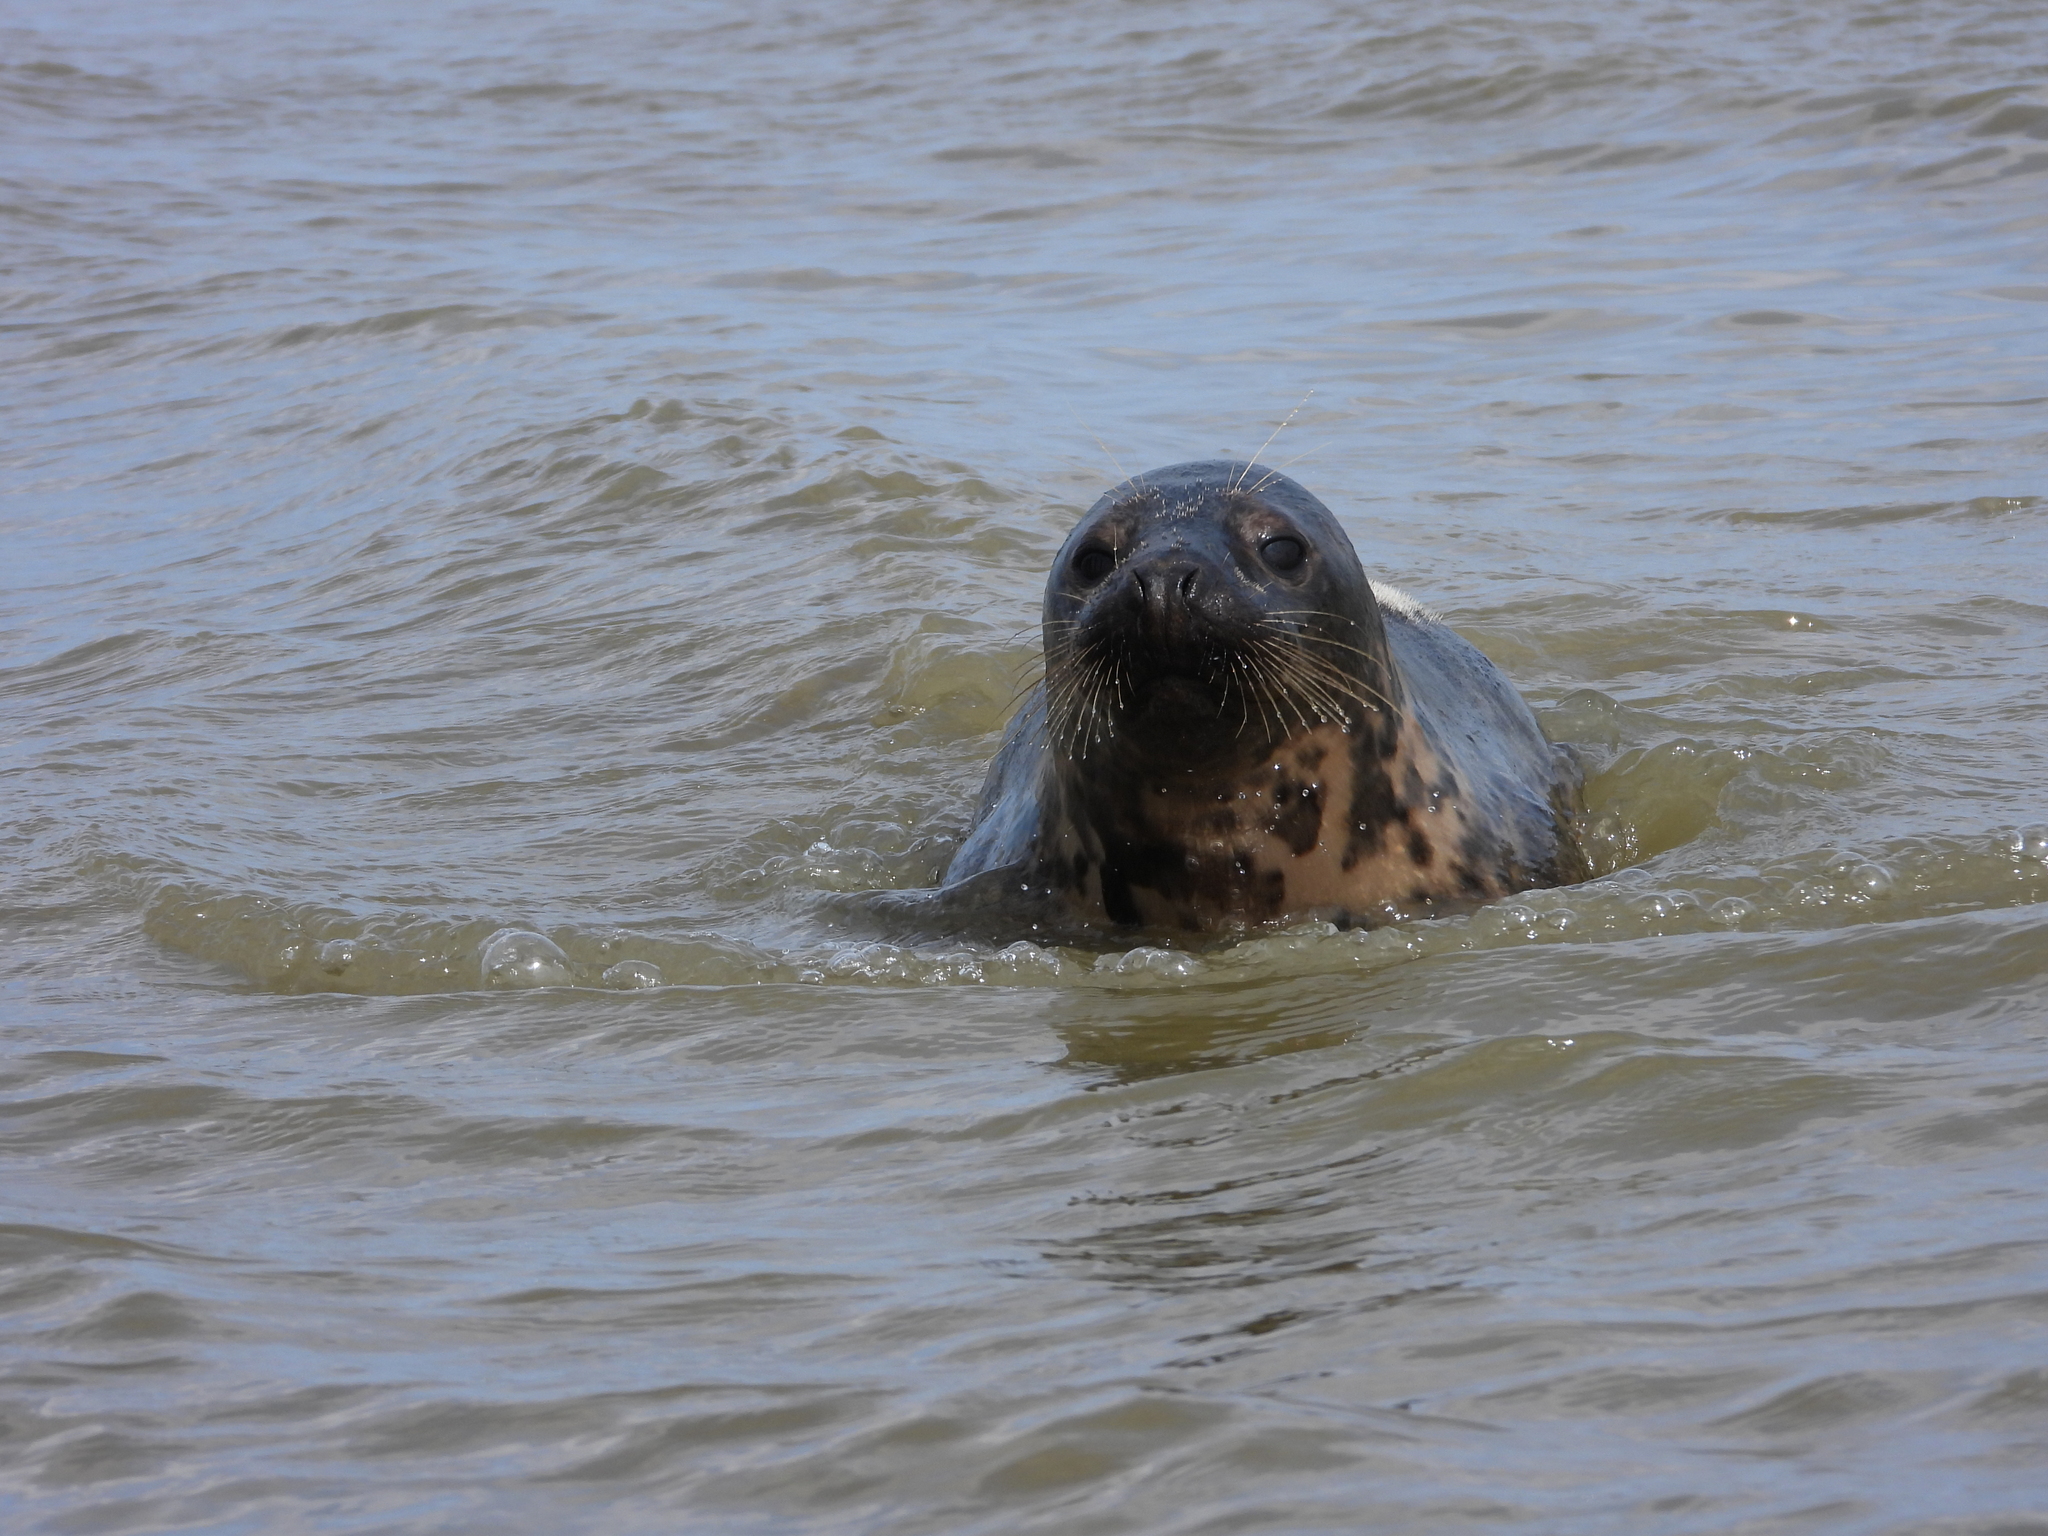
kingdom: Animalia
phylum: Chordata
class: Mammalia
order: Carnivora
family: Phocidae
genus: Halichoerus
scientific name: Halichoerus grypus
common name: Grey seal
